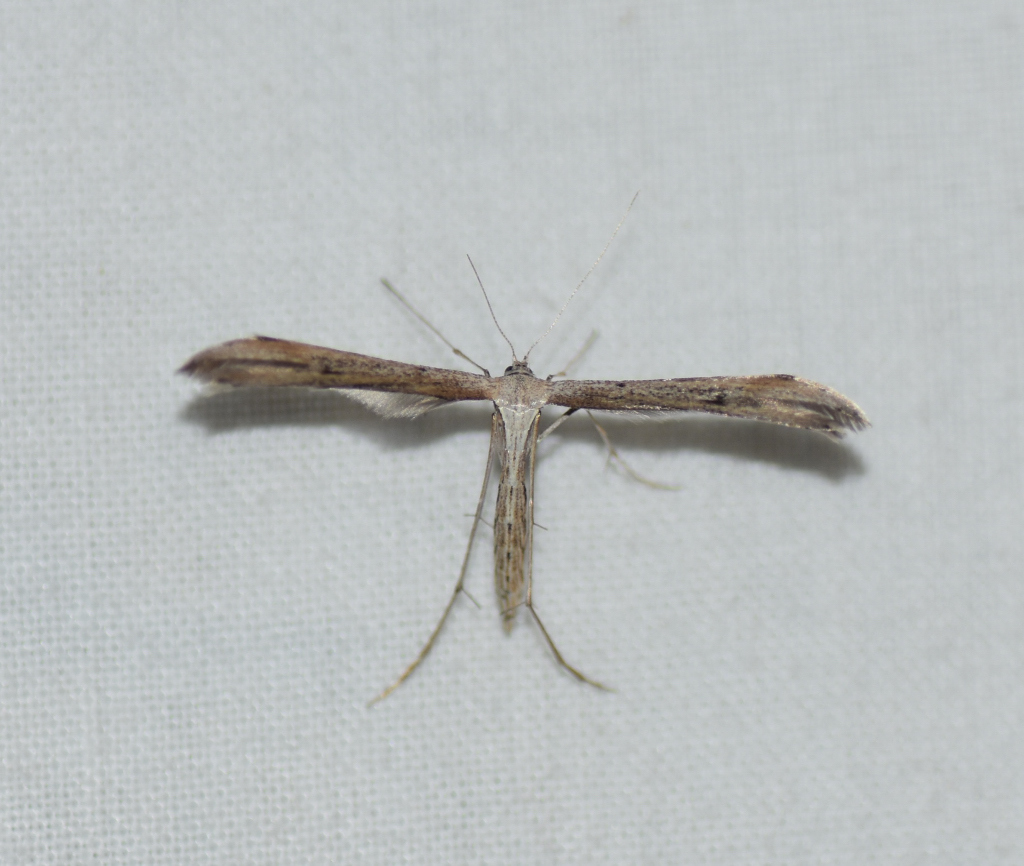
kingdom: Animalia
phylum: Arthropoda
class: Insecta
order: Lepidoptera
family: Pterophoridae
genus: Emmelina
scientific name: Emmelina monodactyla
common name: Common plume
